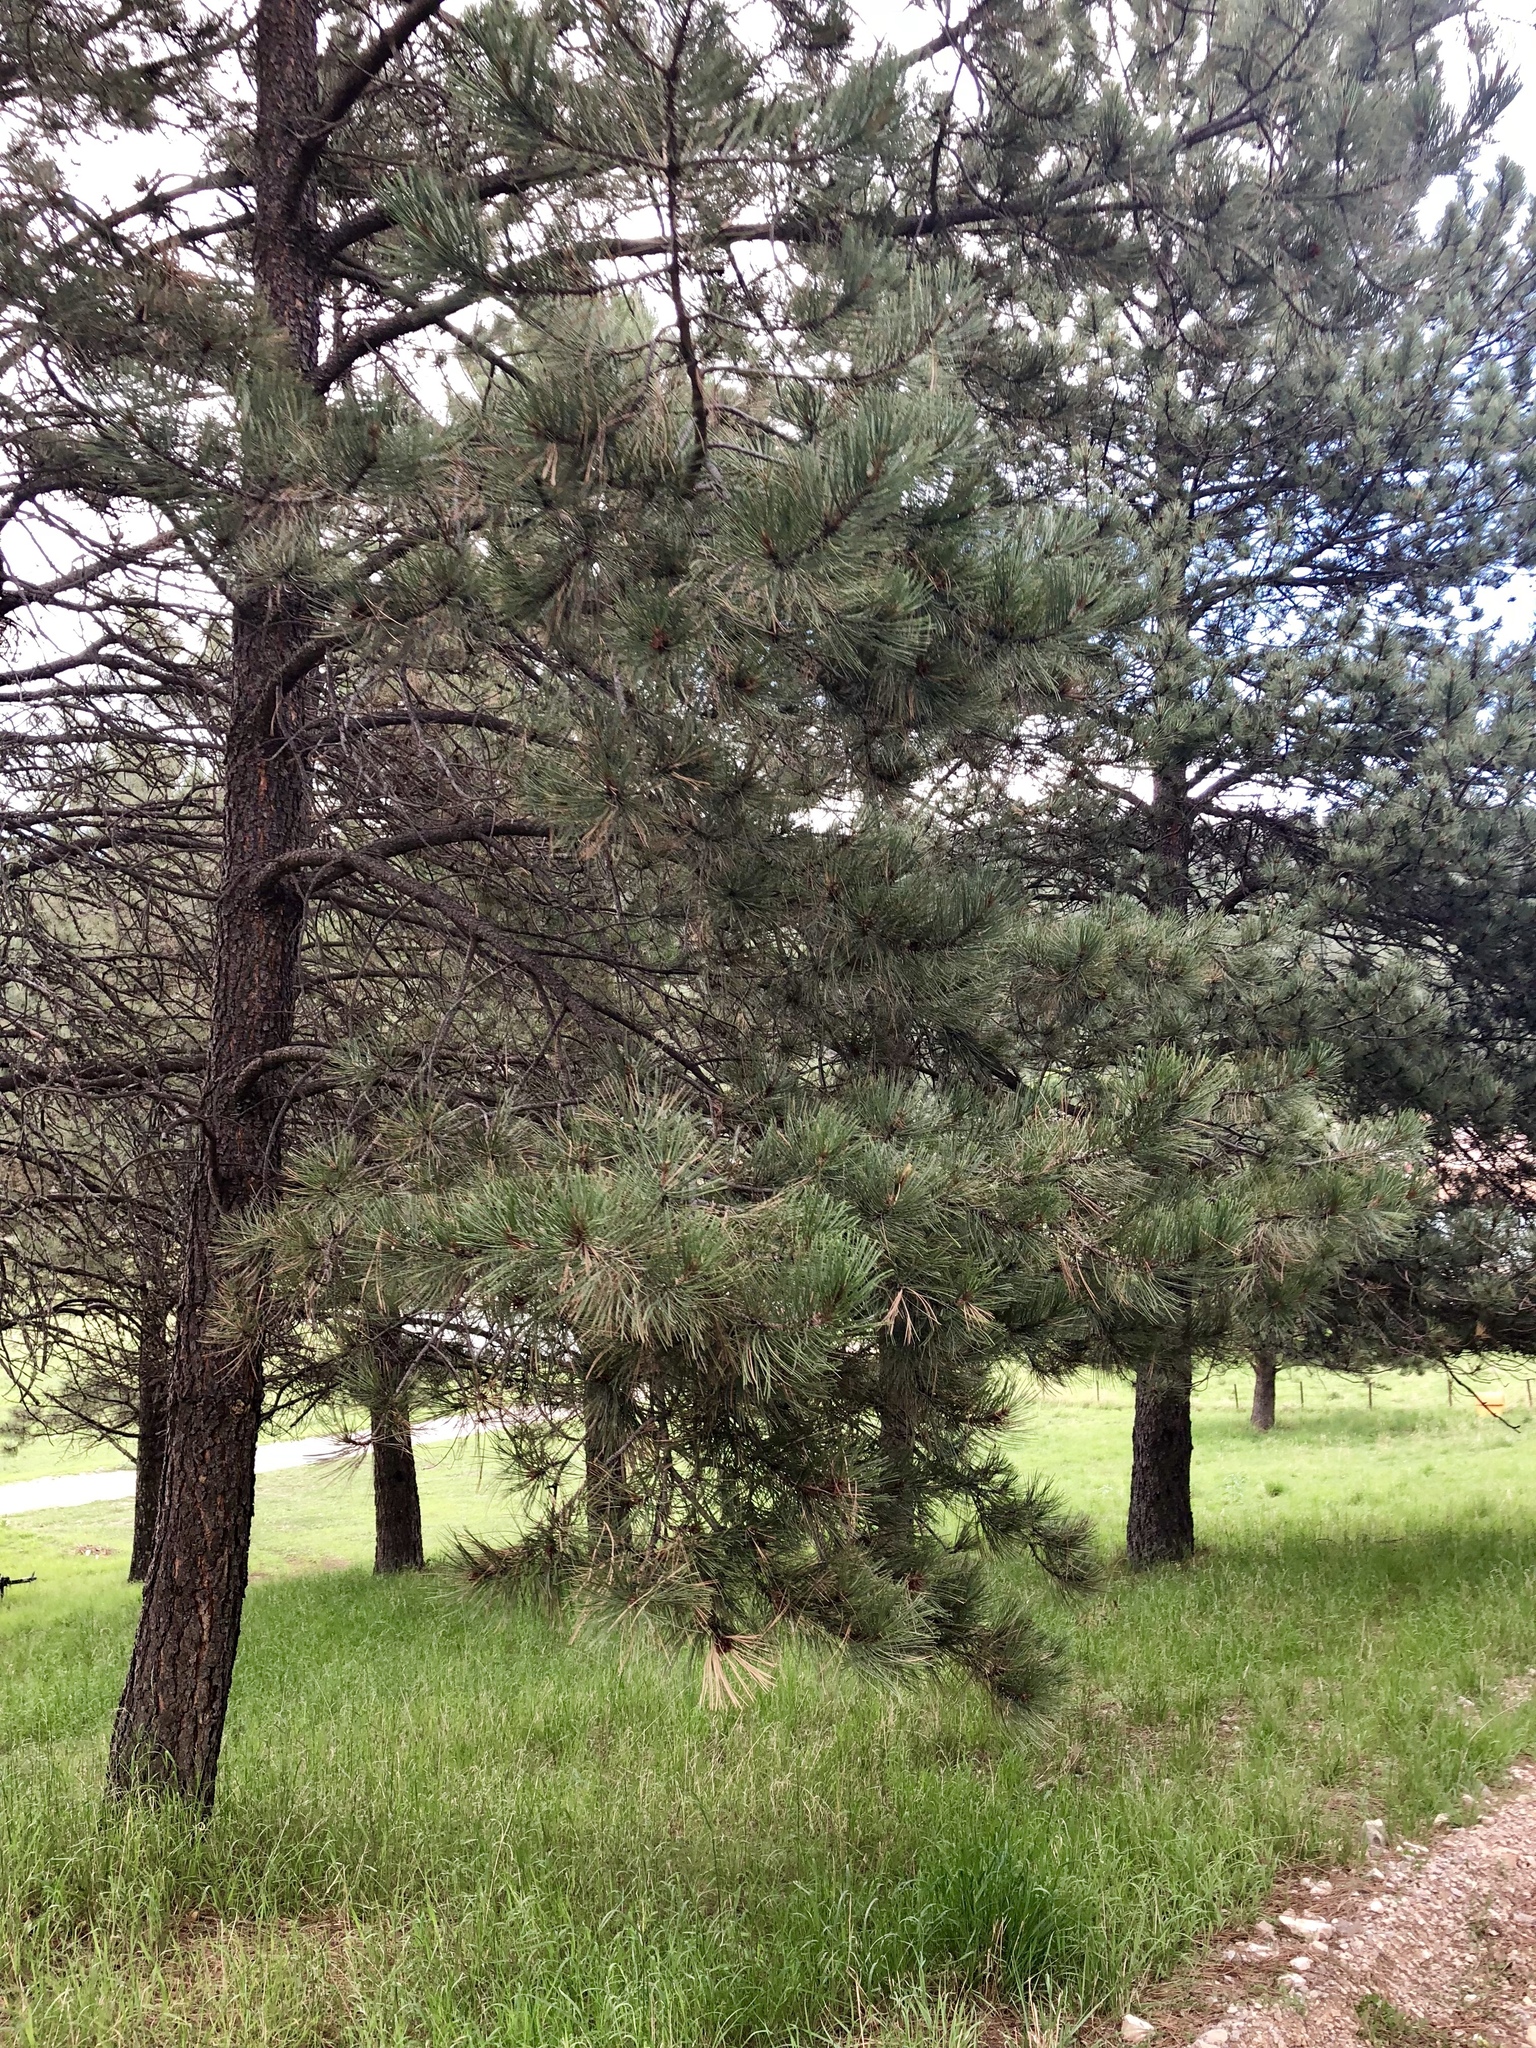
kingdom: Plantae
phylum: Tracheophyta
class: Pinopsida
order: Pinales
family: Pinaceae
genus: Pinus
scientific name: Pinus ponderosa
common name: Western yellow-pine
